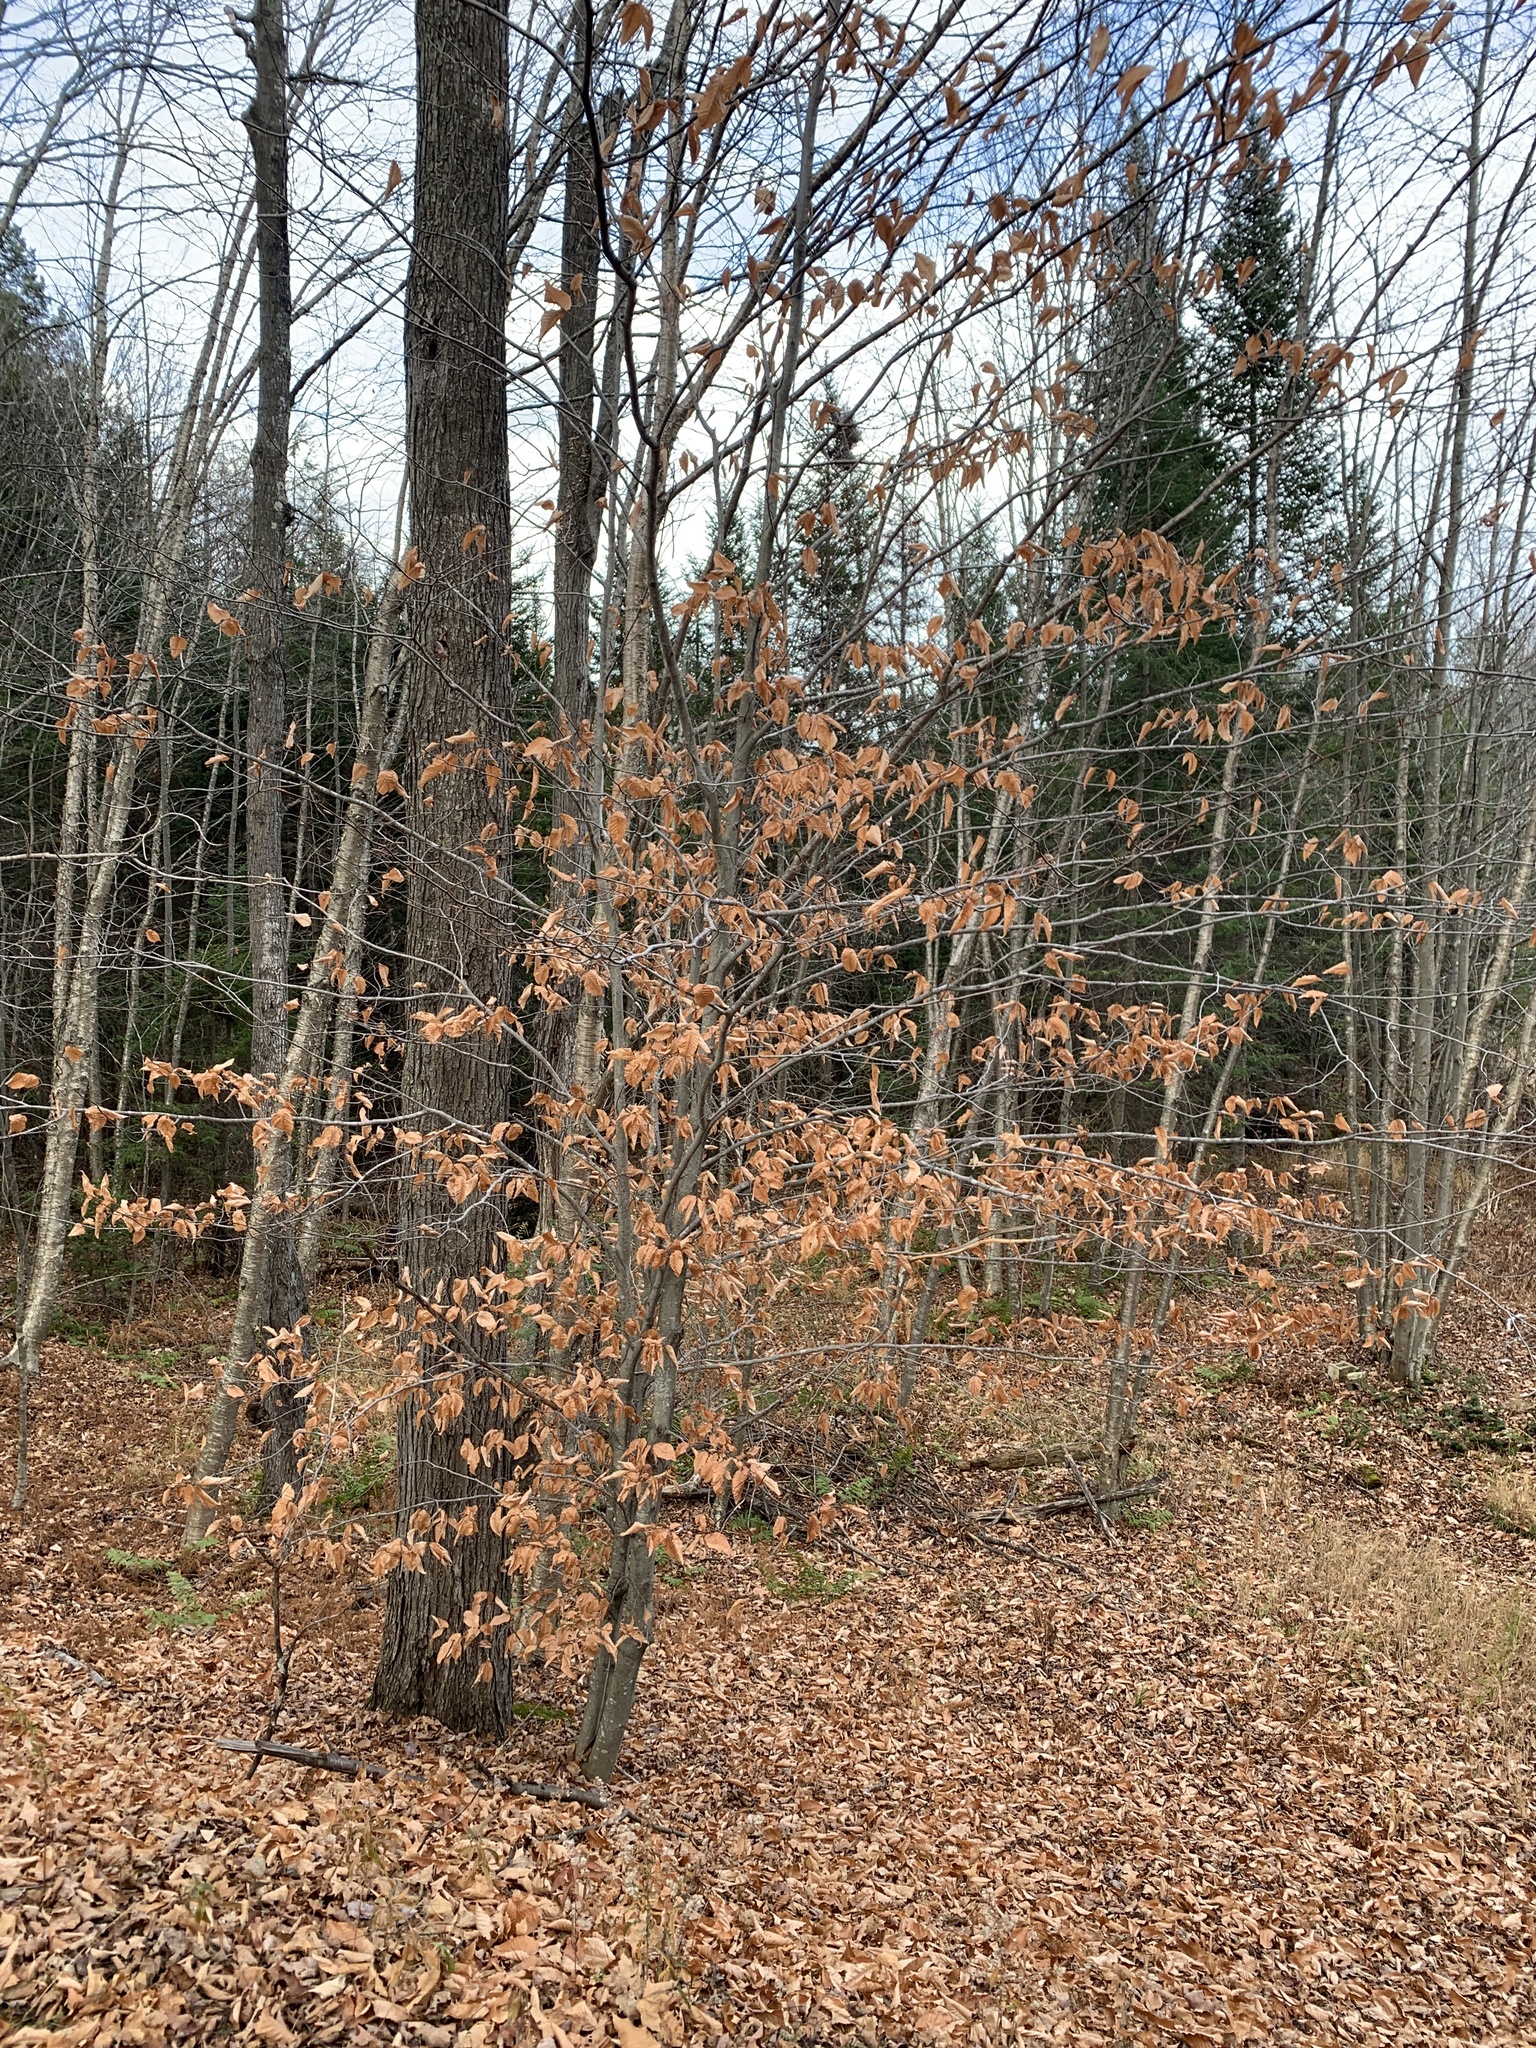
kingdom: Plantae
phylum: Tracheophyta
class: Magnoliopsida
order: Fagales
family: Fagaceae
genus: Fagus
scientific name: Fagus grandifolia
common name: American beech
